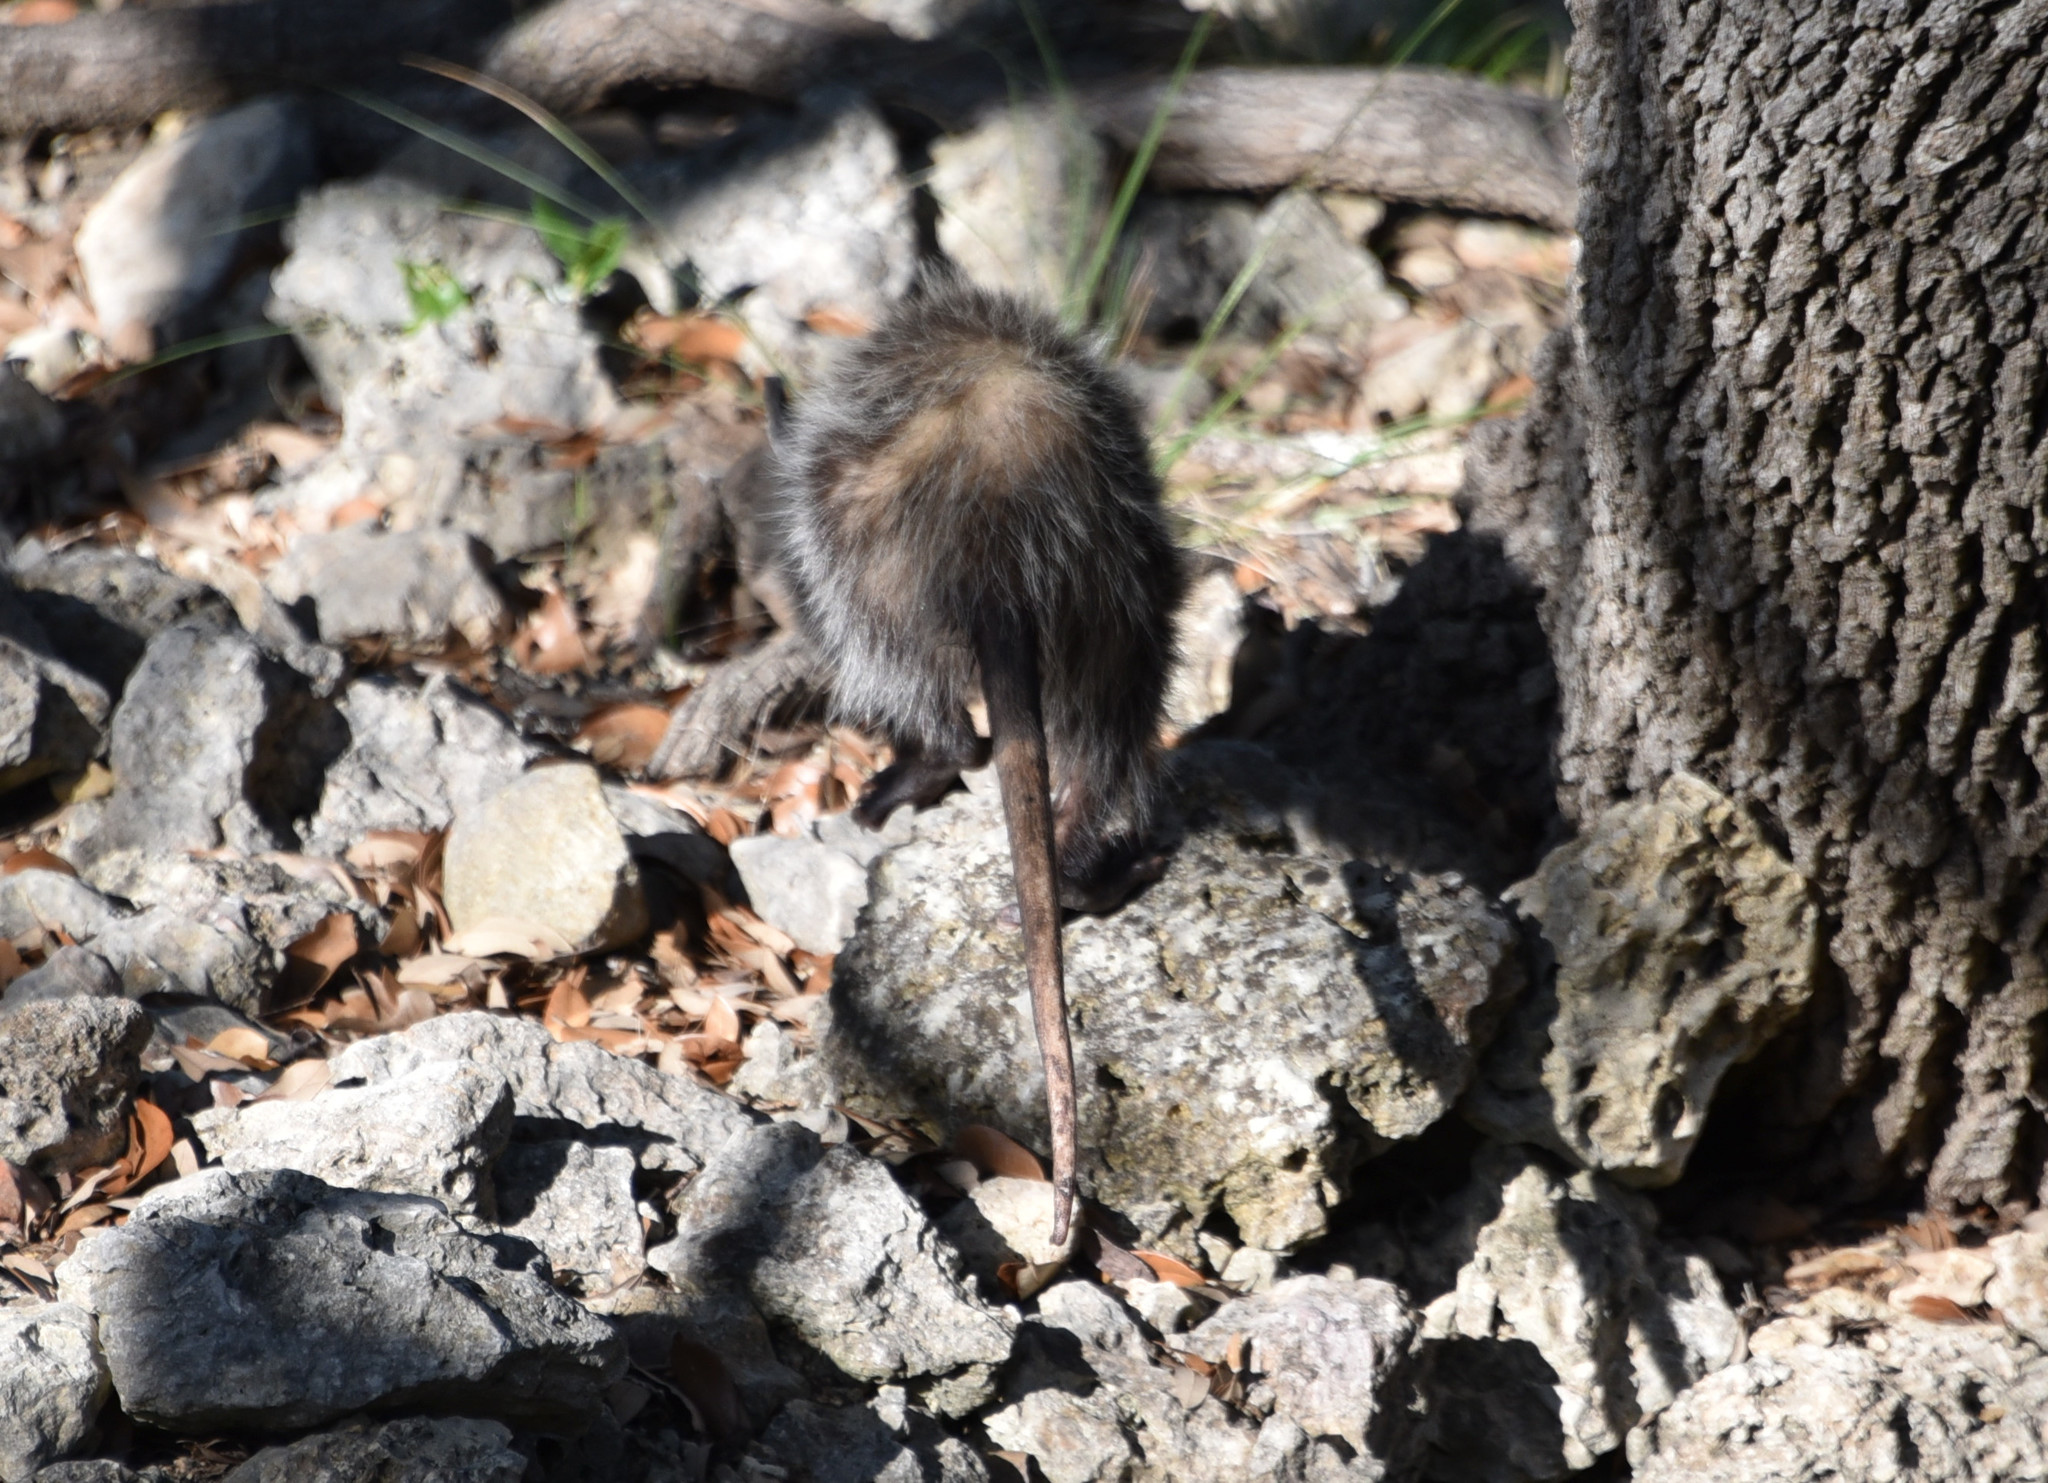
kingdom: Animalia
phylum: Chordata
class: Mammalia
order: Didelphimorphia
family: Didelphidae
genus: Didelphis
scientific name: Didelphis virginiana
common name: Virginia opossum
